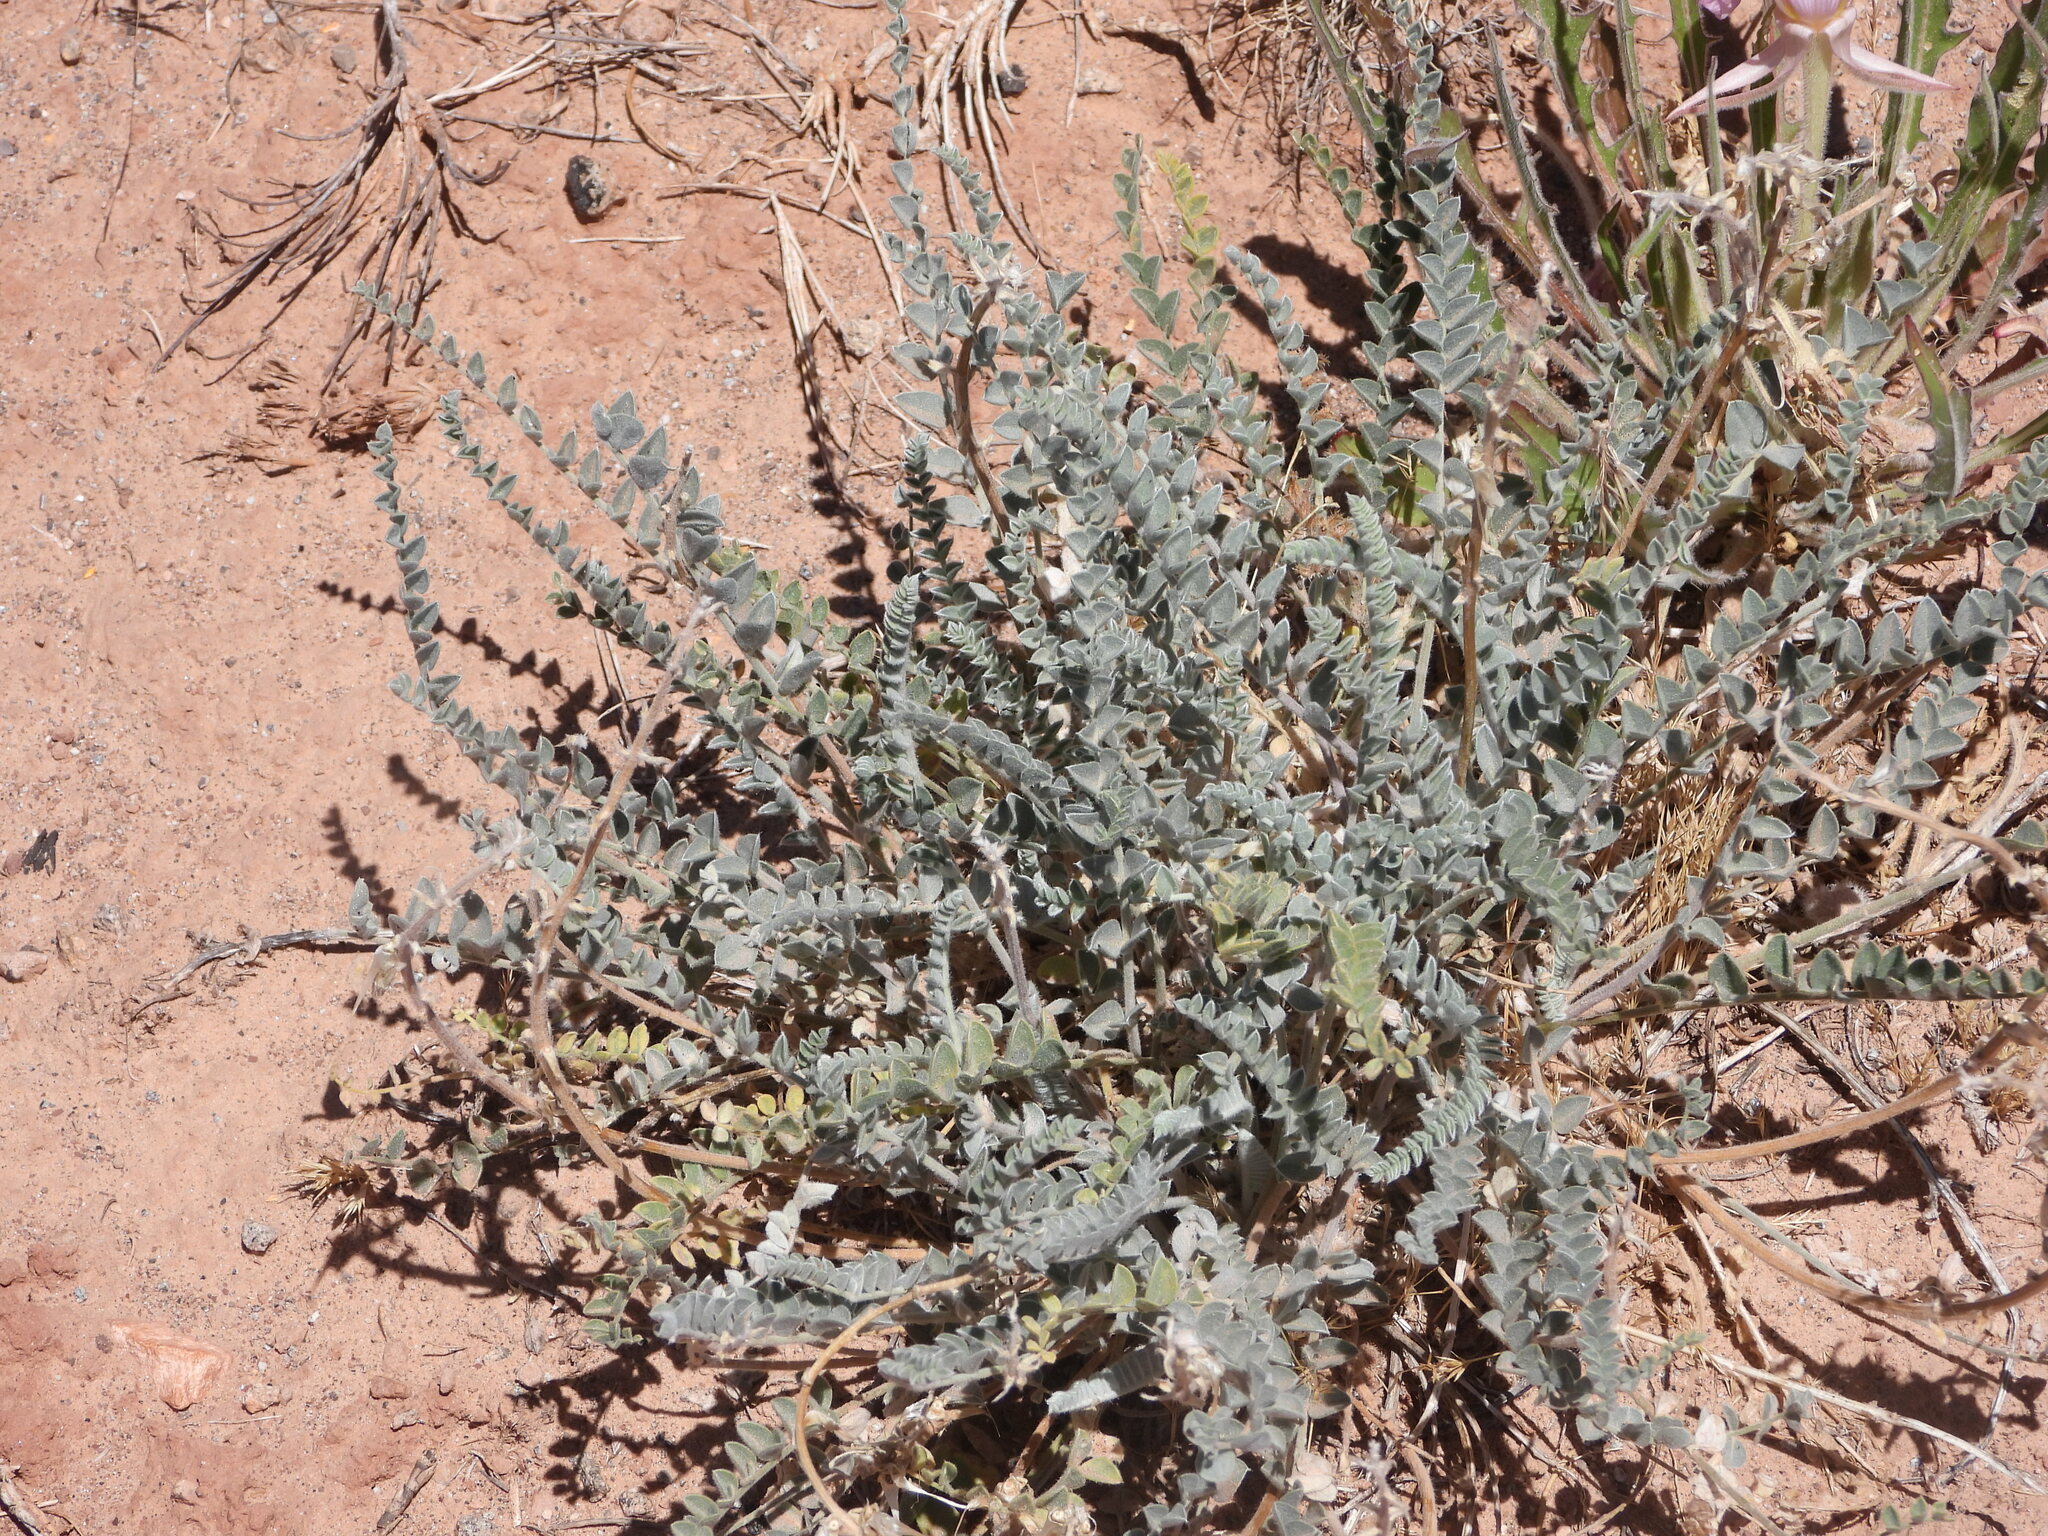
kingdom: Plantae
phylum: Tracheophyta
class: Magnoliopsida
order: Fabales
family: Fabaceae
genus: Astragalus
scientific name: Astragalus mollissimus
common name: Woolly locoweed
